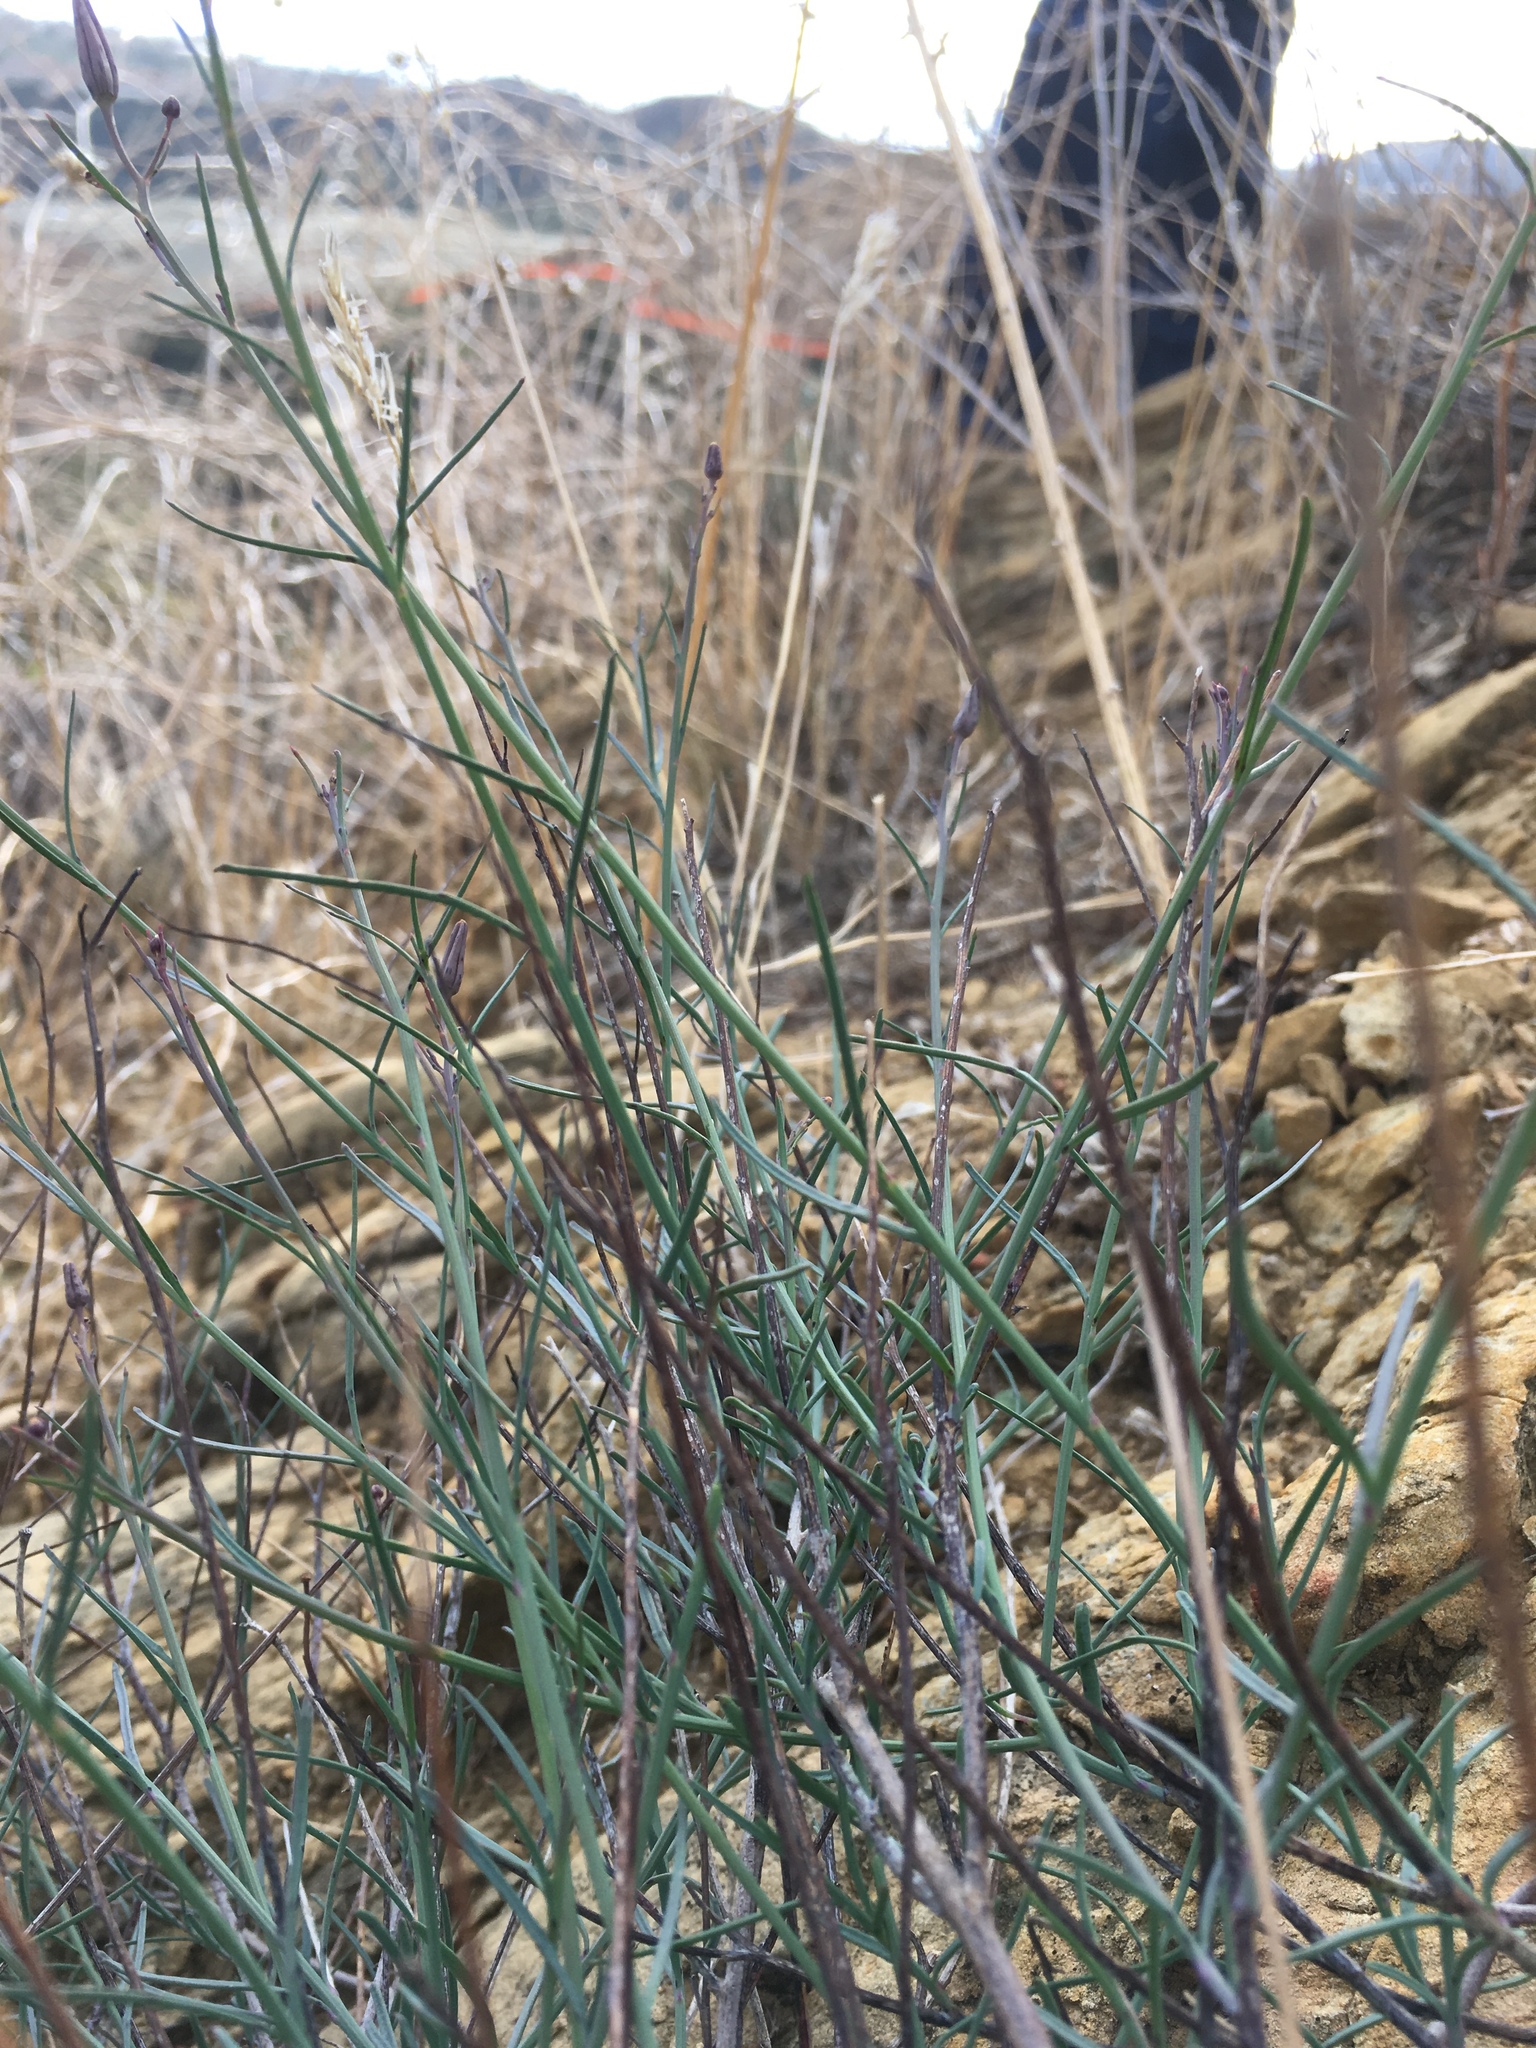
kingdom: Plantae
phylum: Tracheophyta
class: Magnoliopsida
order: Asterales
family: Asteraceae
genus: Porophyllum
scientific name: Porophyllum gracile
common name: Odora
